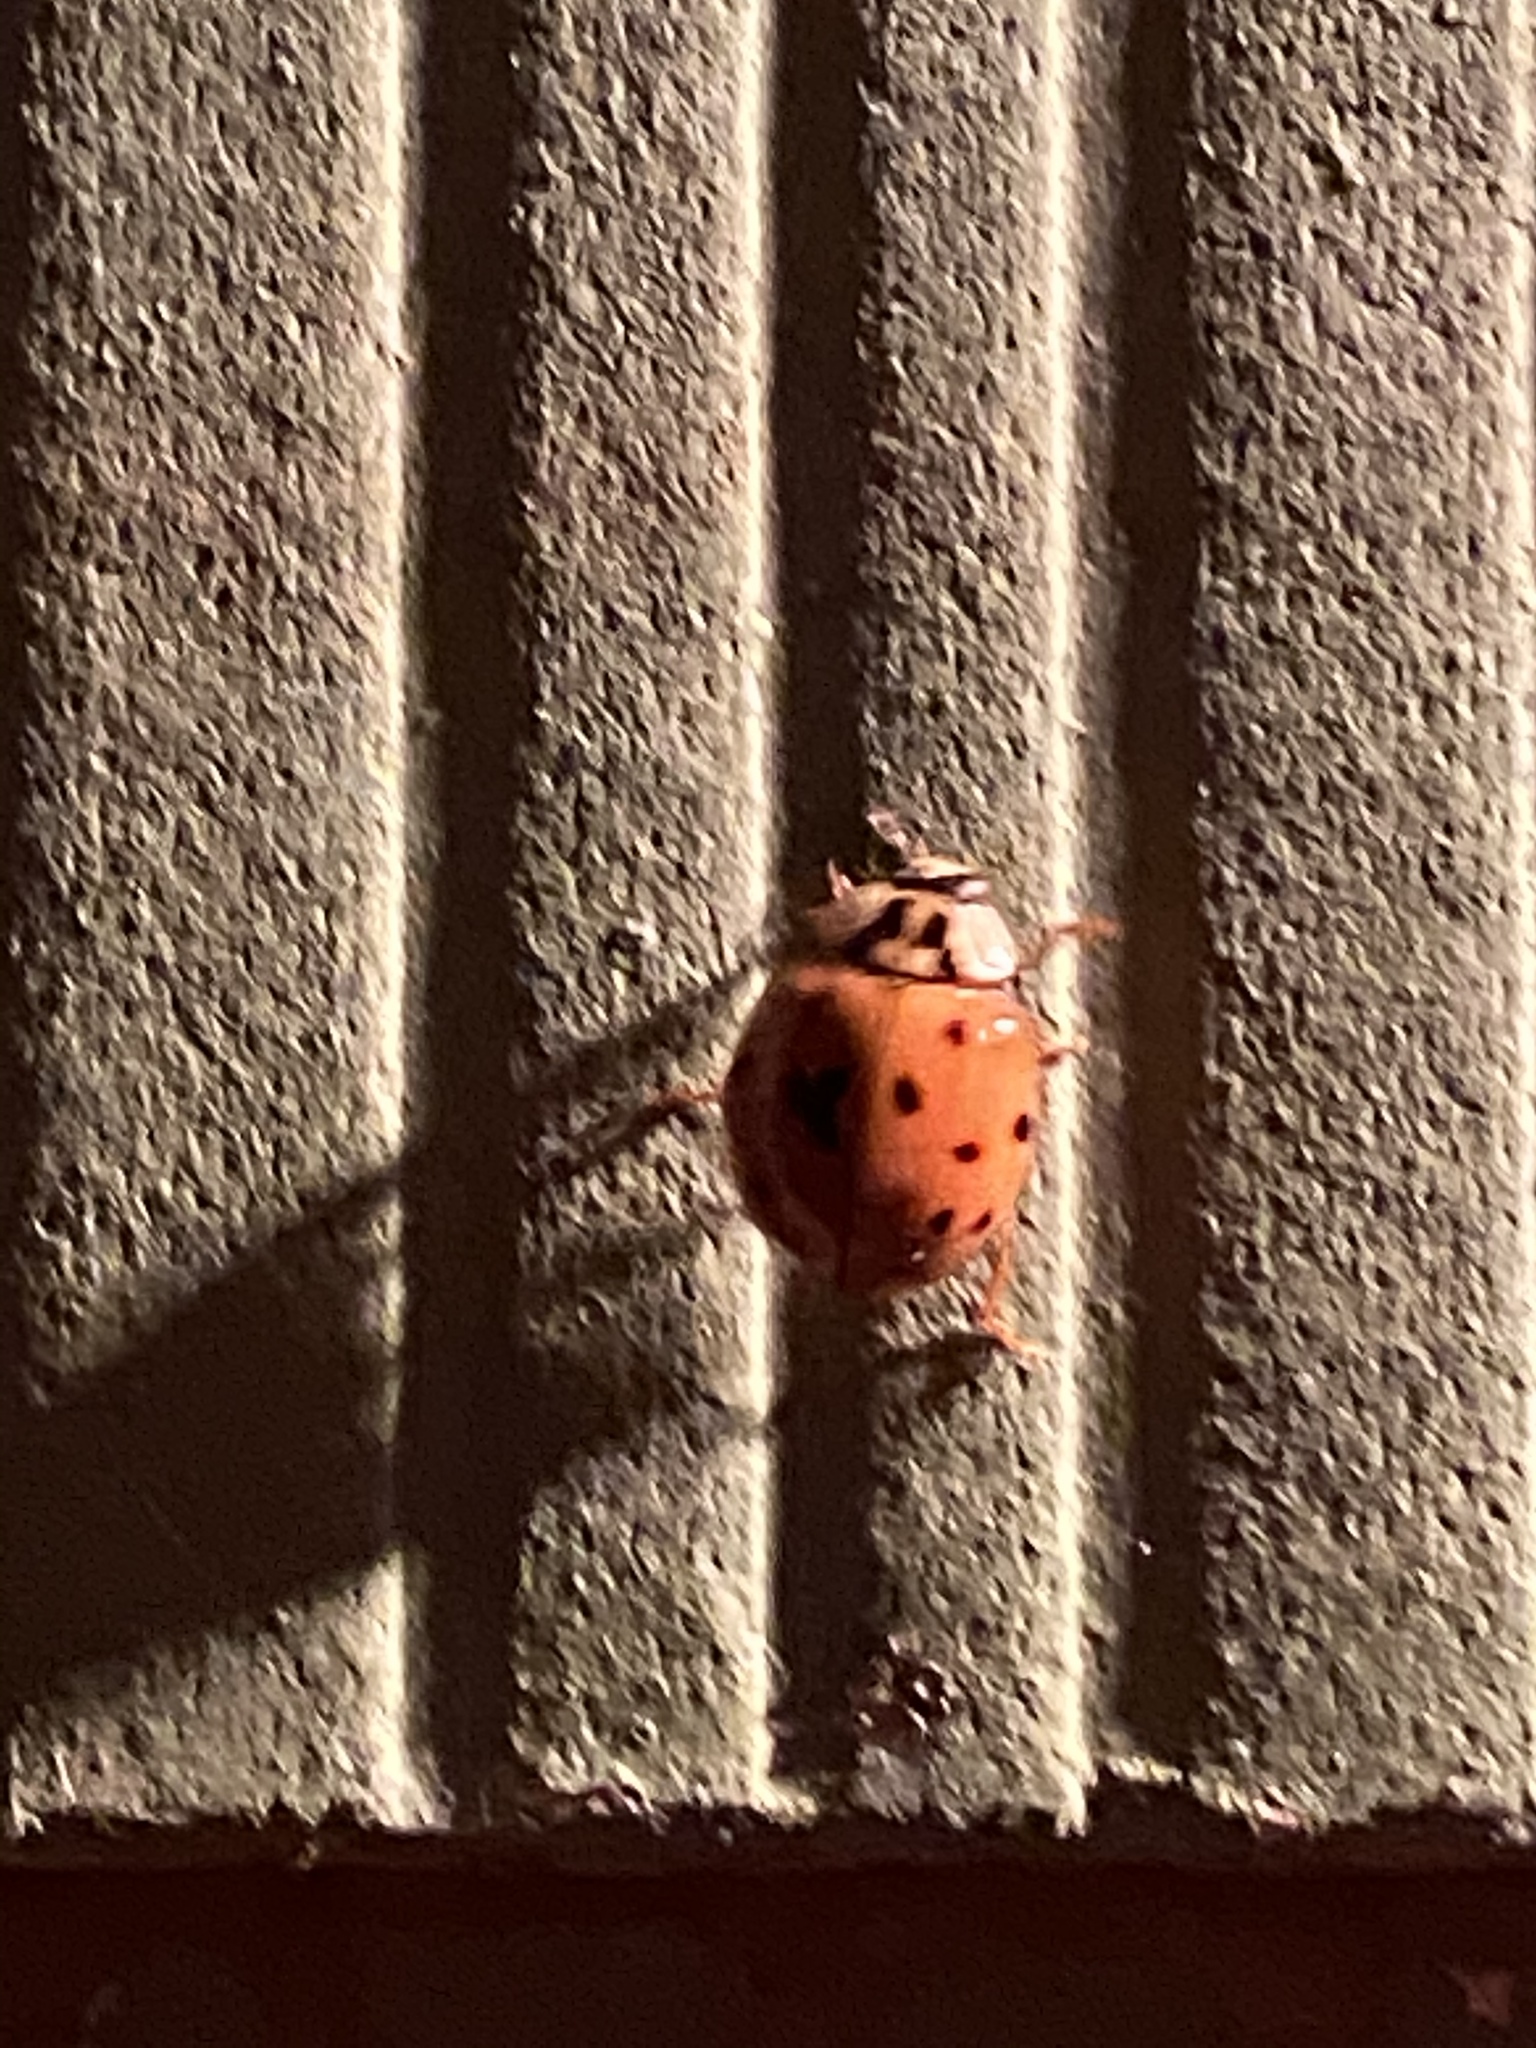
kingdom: Animalia
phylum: Arthropoda
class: Insecta
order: Coleoptera
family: Coccinellidae
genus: Harmonia
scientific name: Harmonia axyridis
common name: Harlequin ladybird
